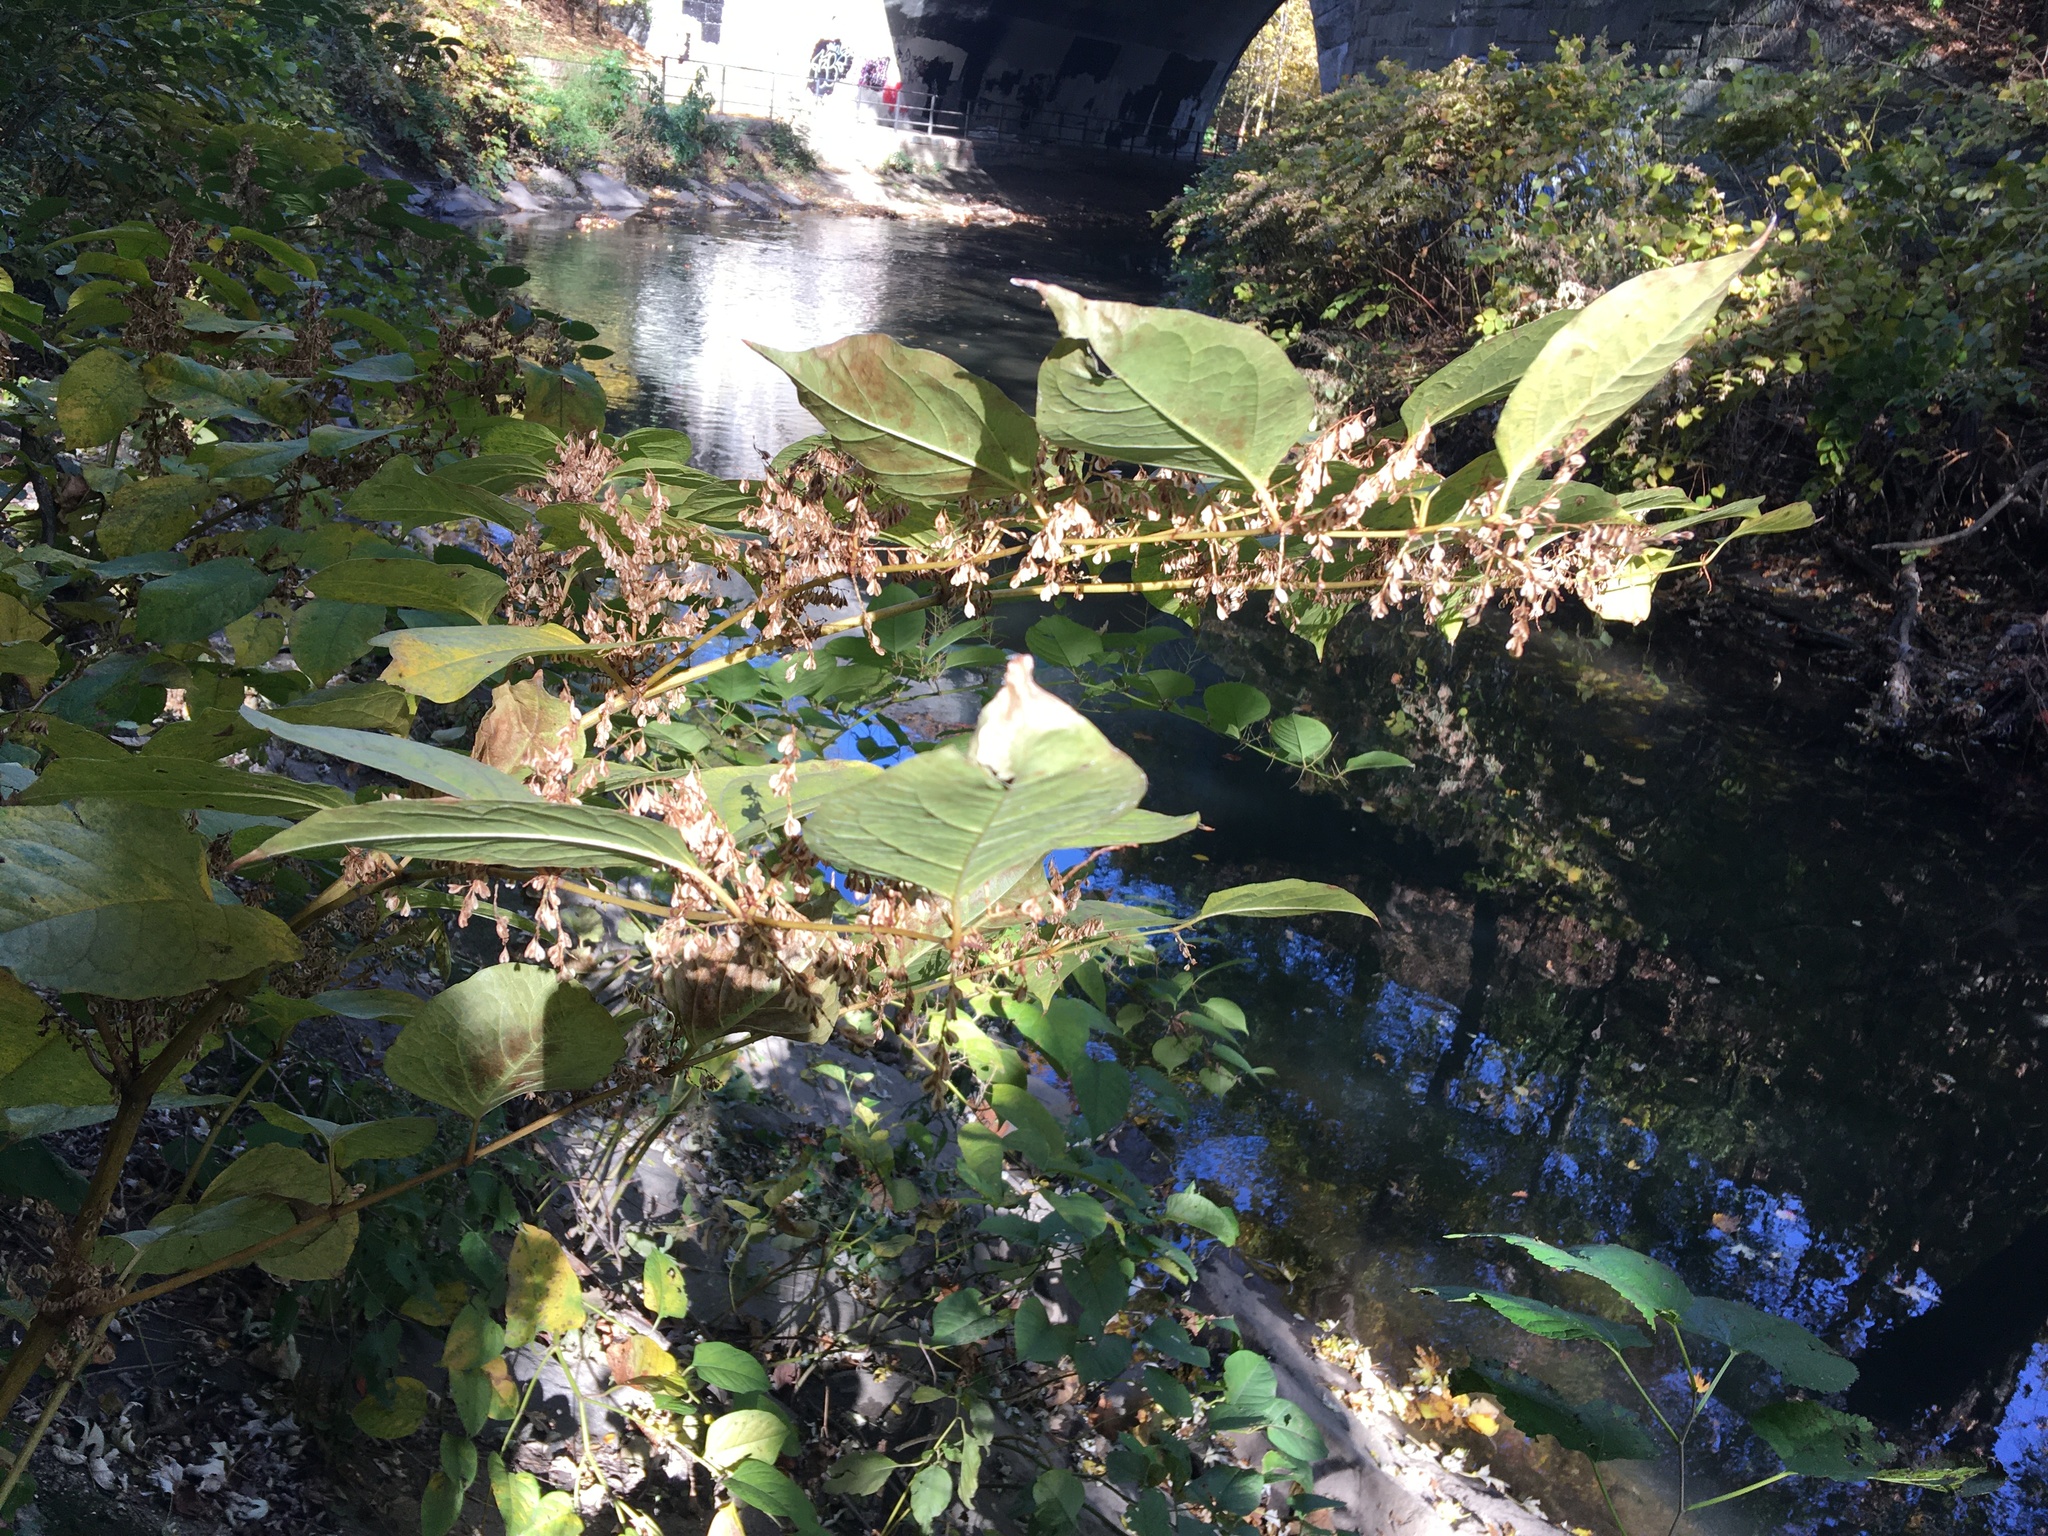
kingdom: Plantae
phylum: Tracheophyta
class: Magnoliopsida
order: Caryophyllales
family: Polygonaceae
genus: Reynoutria
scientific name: Reynoutria japonica
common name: Japanese knotweed
